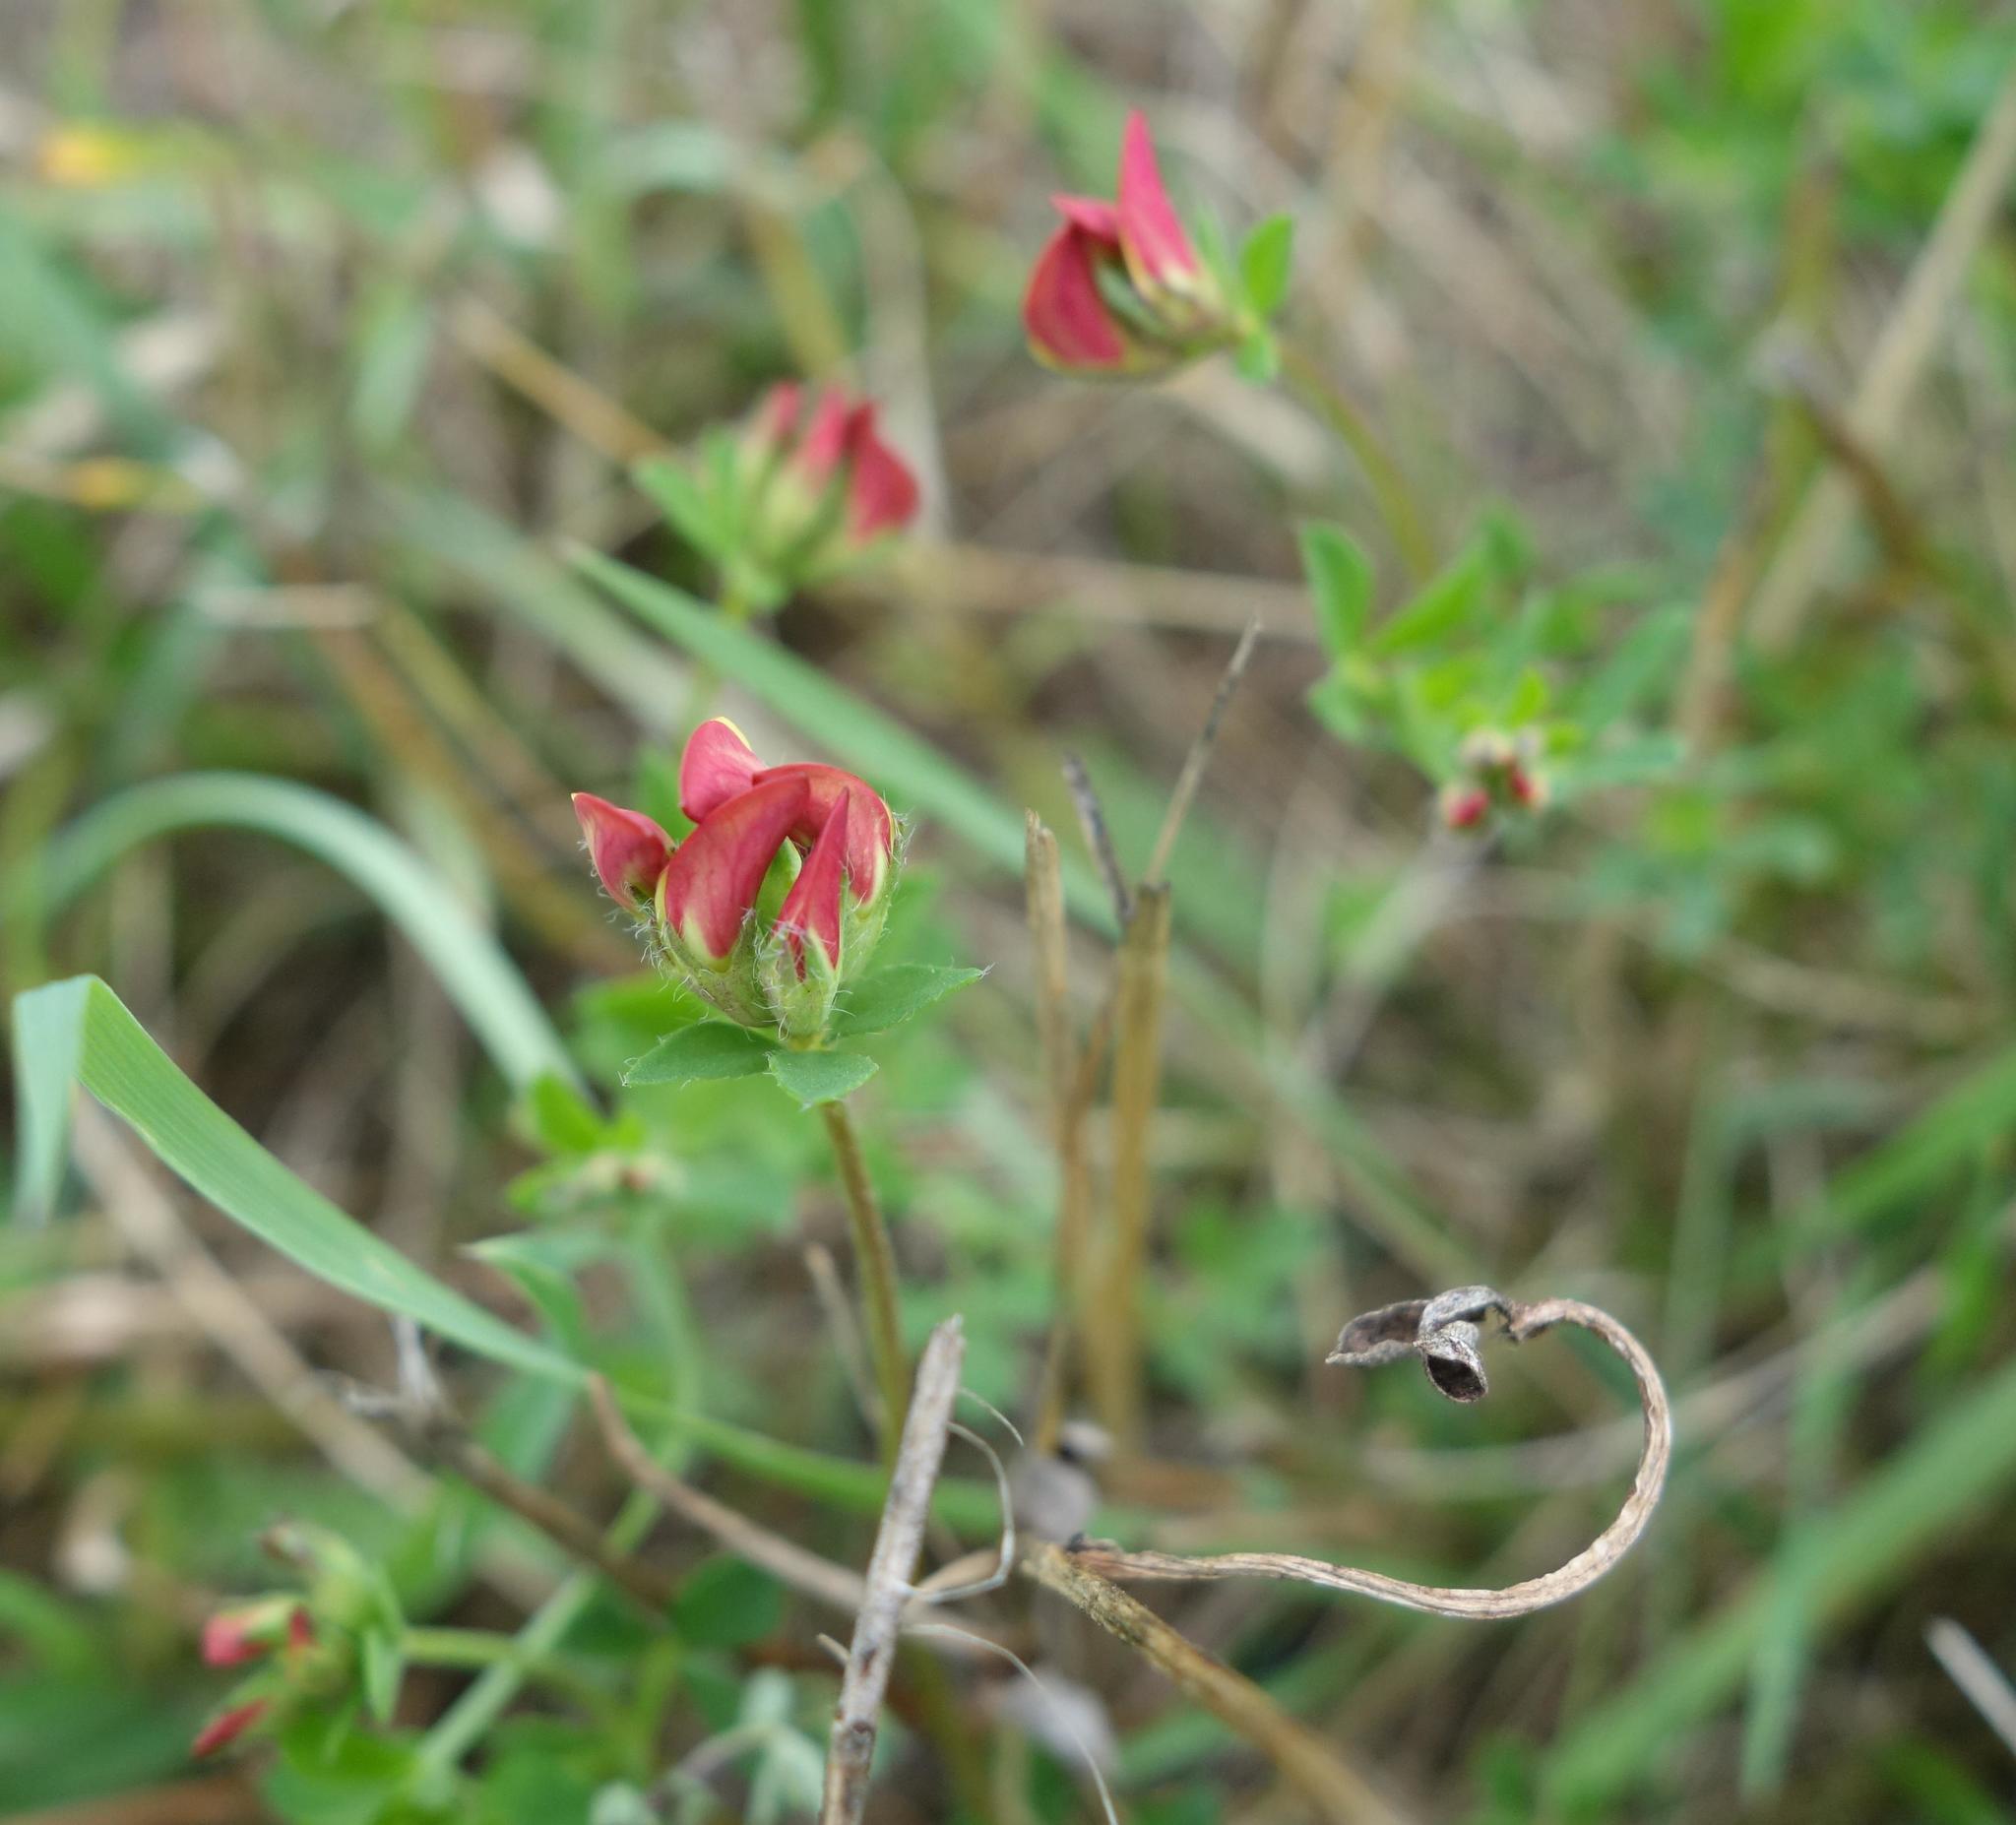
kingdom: Plantae
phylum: Tracheophyta
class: Magnoliopsida
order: Fabales
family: Fabaceae
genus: Lotus
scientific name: Lotus corniculatus
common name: Common bird's-foot-trefoil
